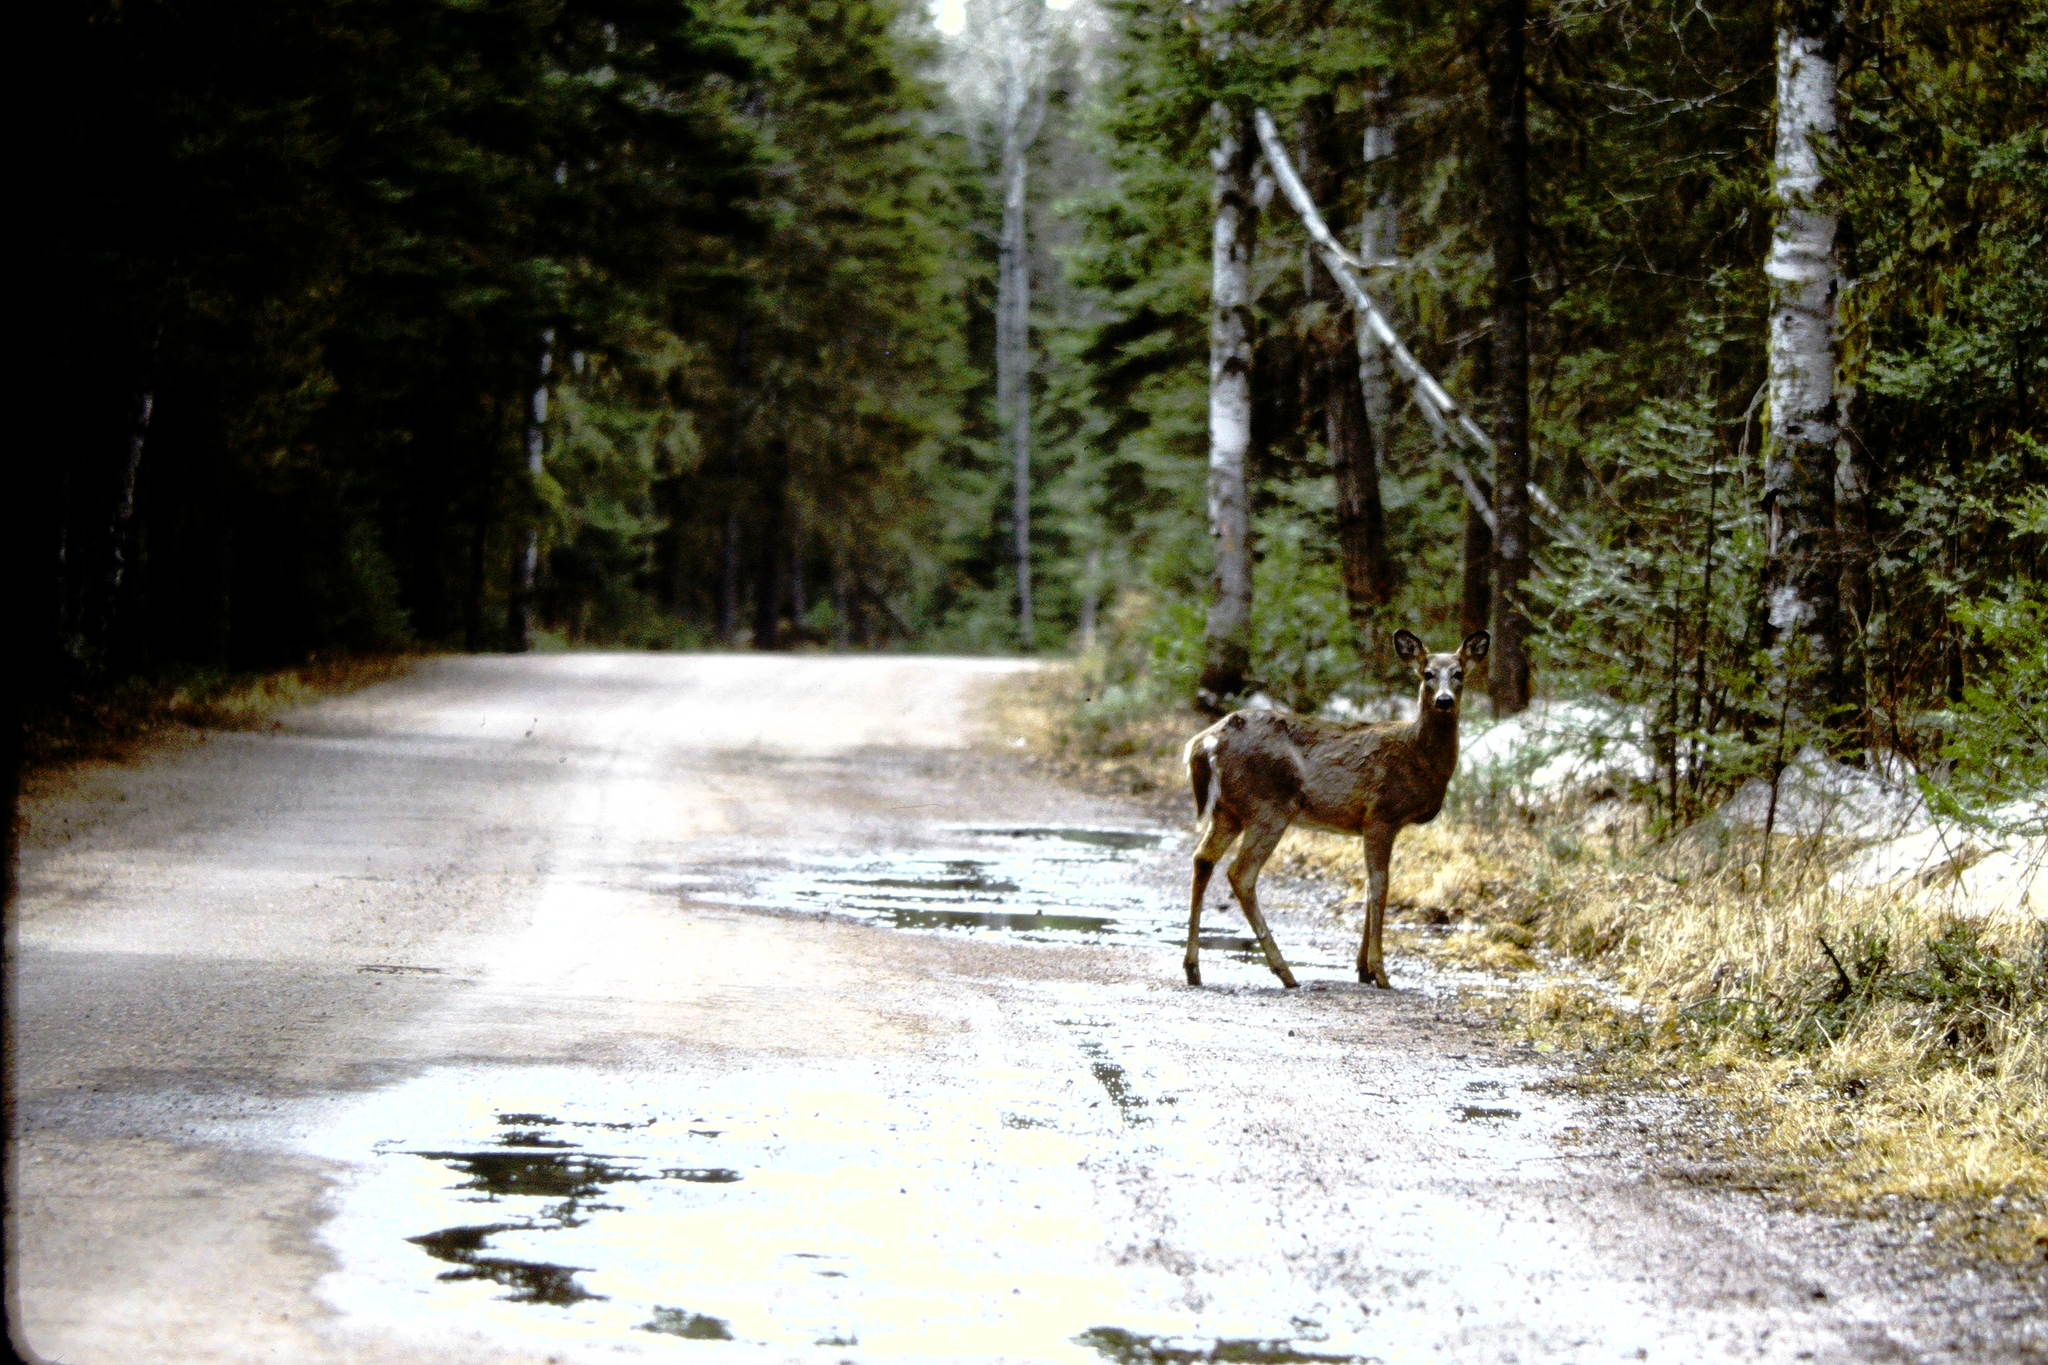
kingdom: Animalia
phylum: Chordata
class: Mammalia
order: Artiodactyla
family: Cervidae
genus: Odocoileus
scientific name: Odocoileus virginianus
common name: White-tailed deer
